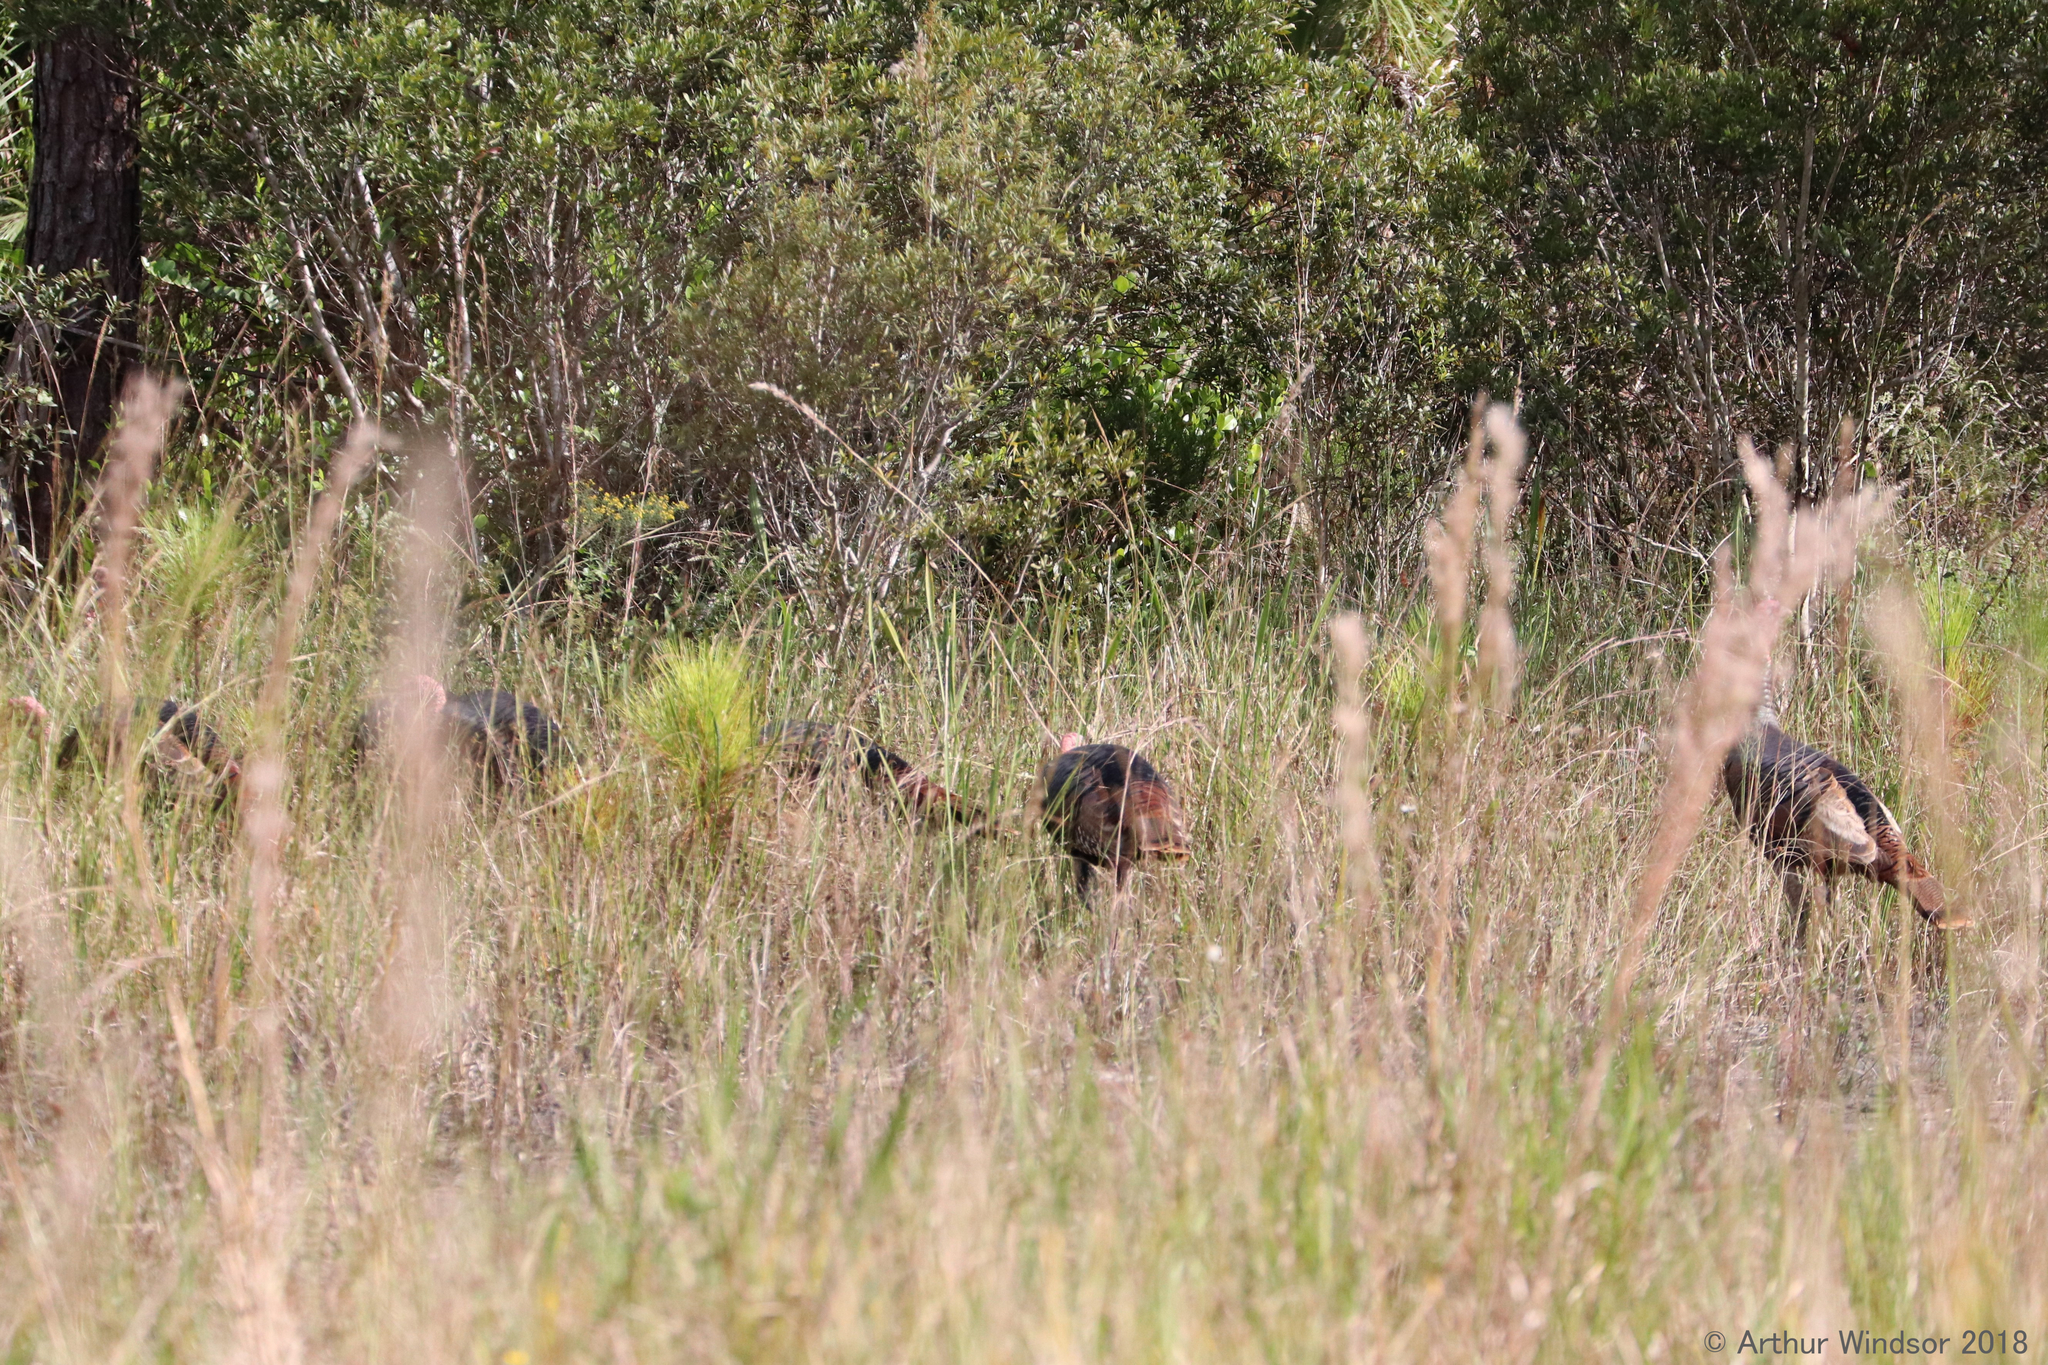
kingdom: Animalia
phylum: Chordata
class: Aves
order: Galliformes
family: Phasianidae
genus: Meleagris
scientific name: Meleagris gallopavo
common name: Wild turkey
